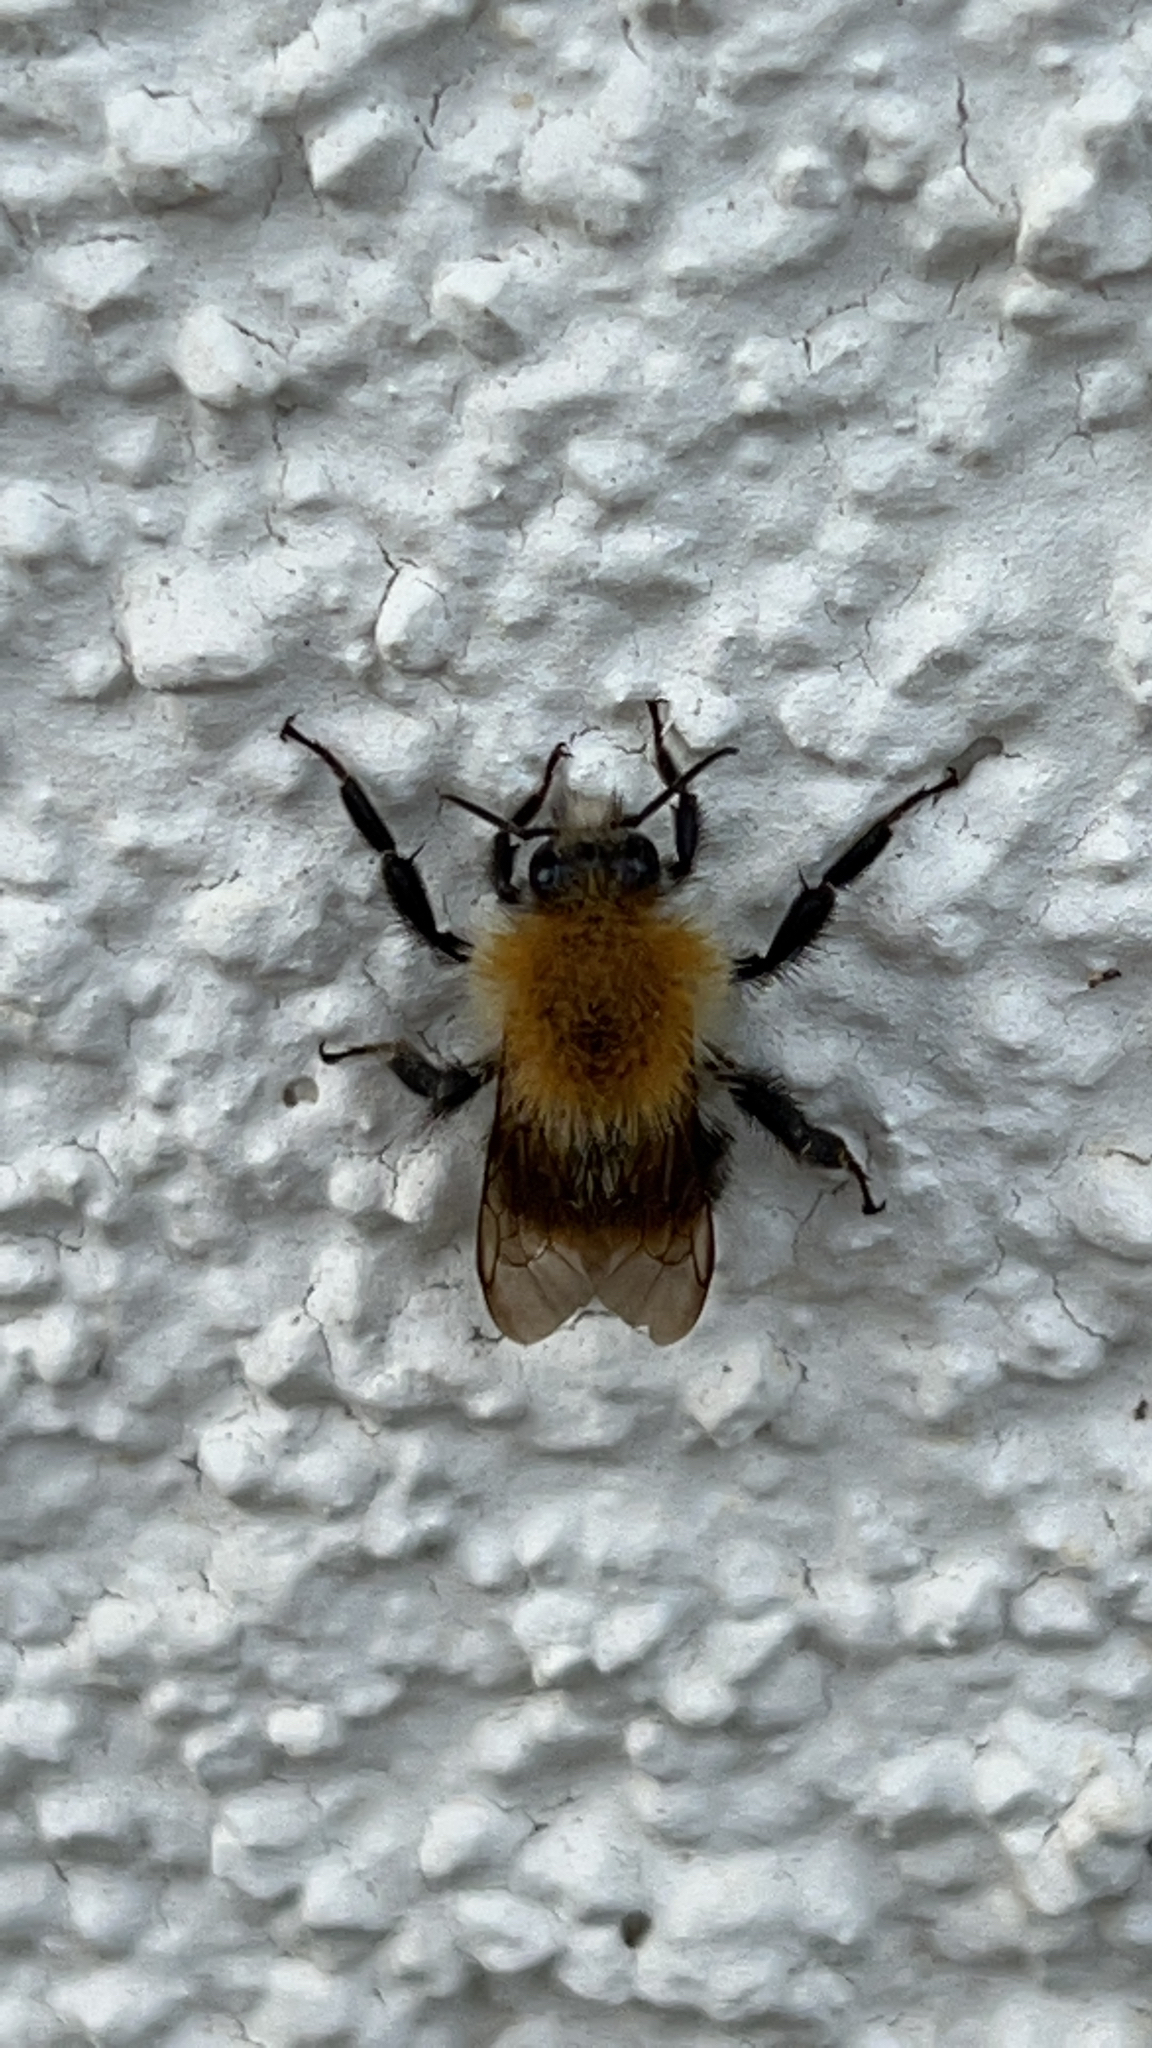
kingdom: Animalia
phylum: Arthropoda
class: Insecta
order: Hymenoptera
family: Apidae
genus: Bombus
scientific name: Bombus pascuorum
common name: Common carder bee
